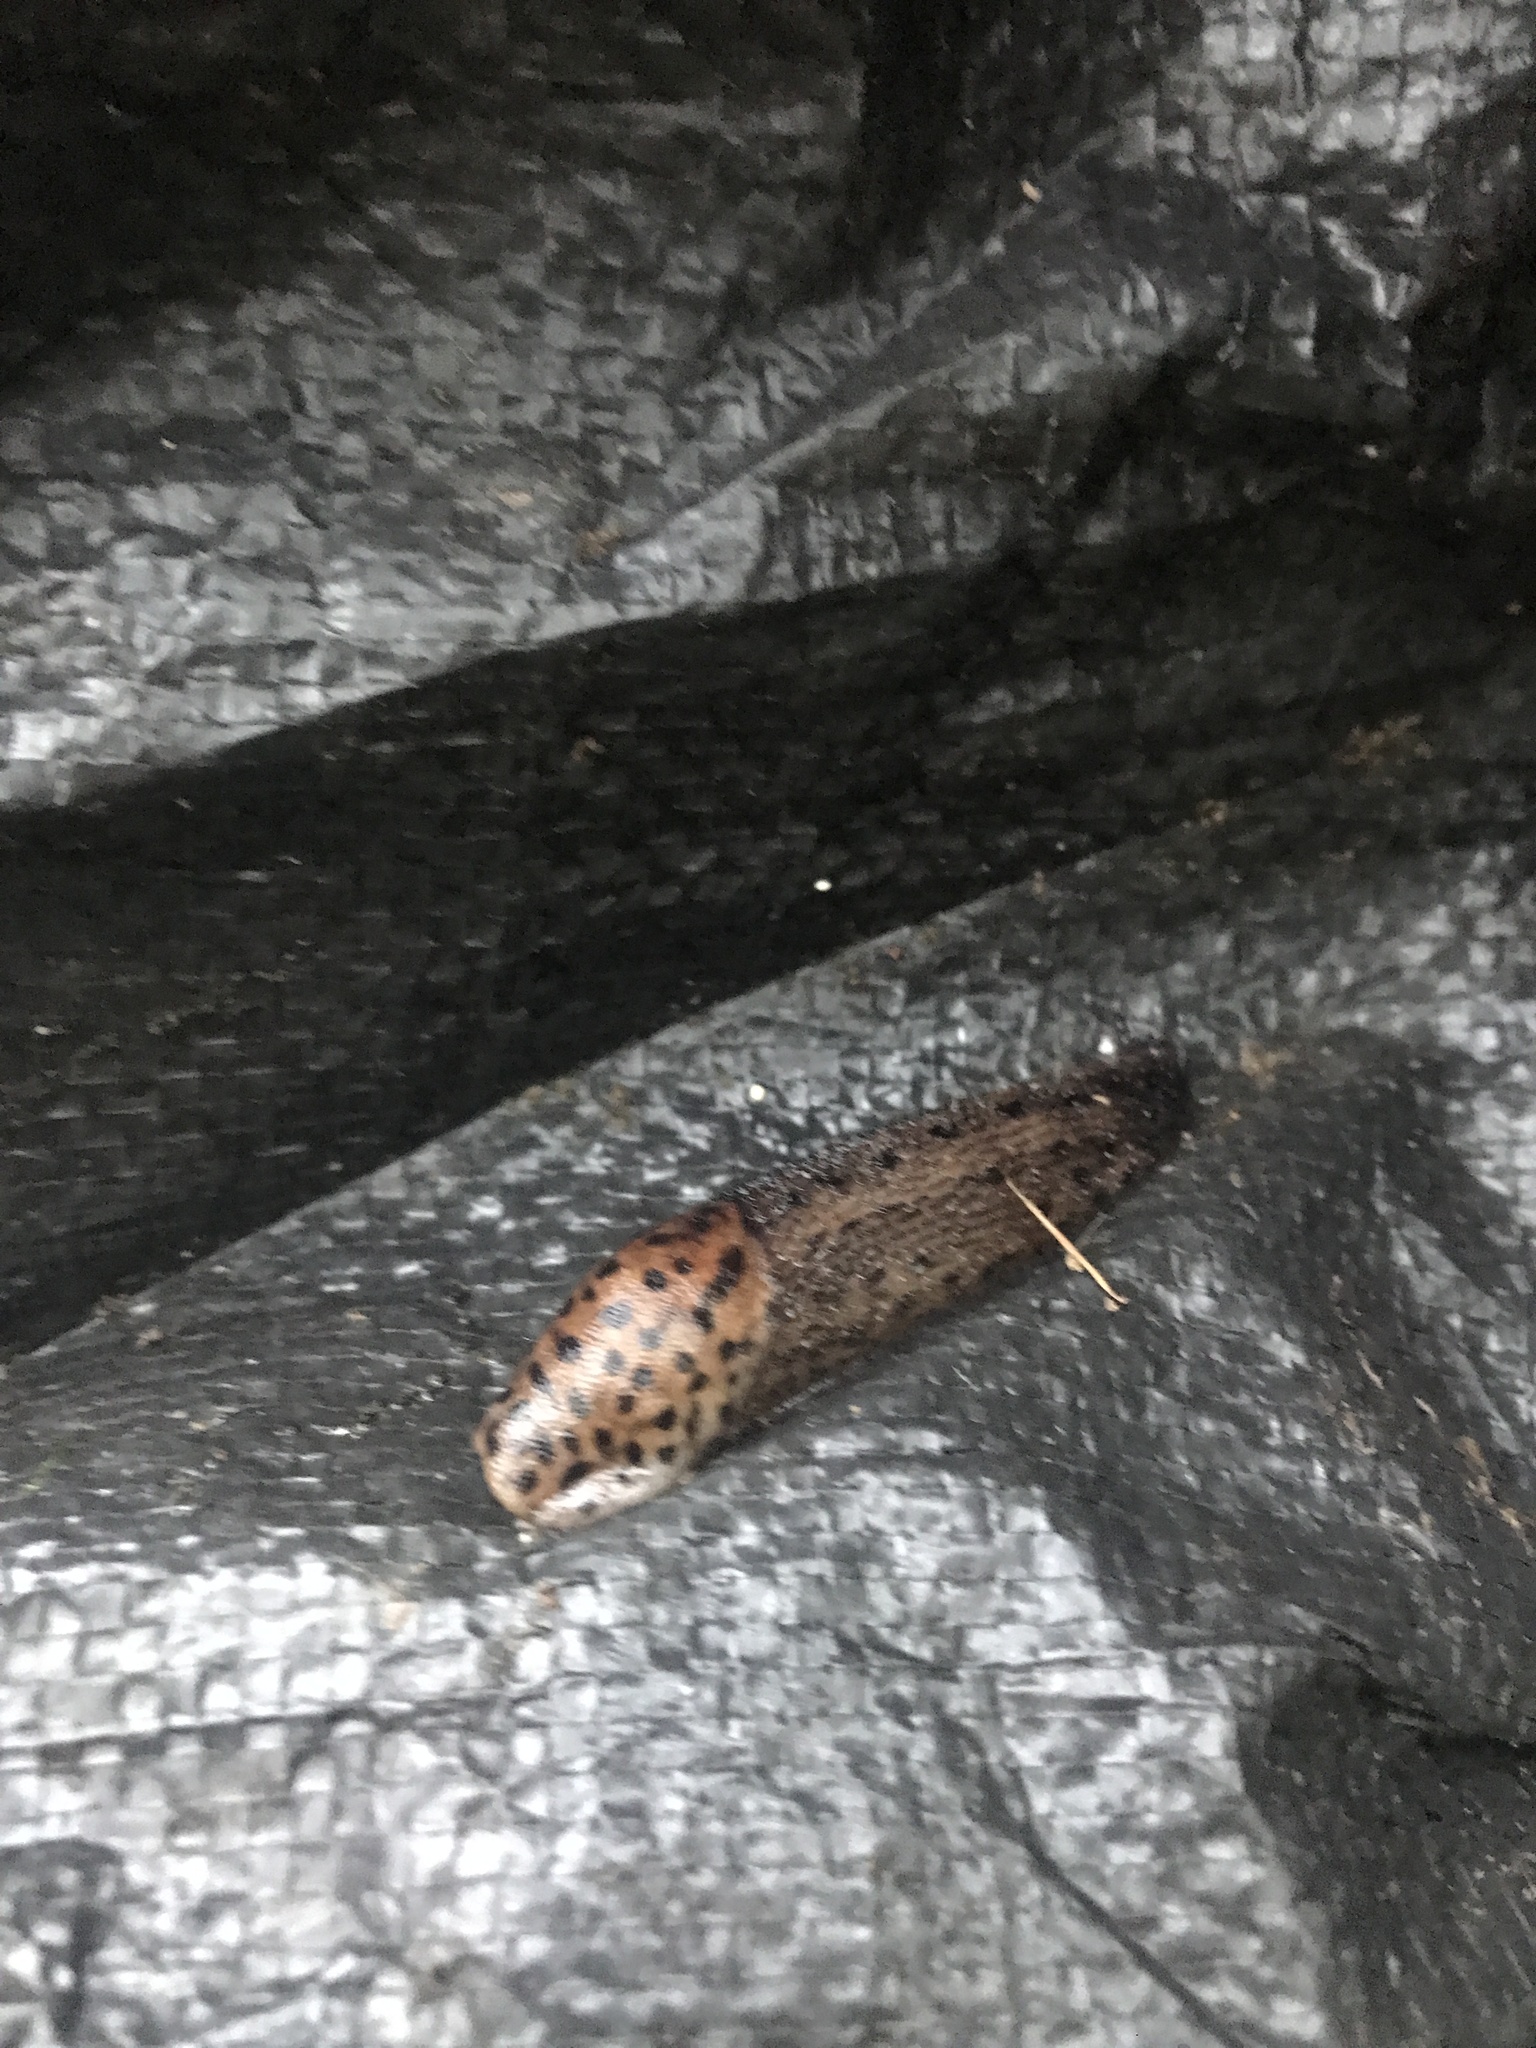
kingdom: Animalia
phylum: Mollusca
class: Gastropoda
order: Stylommatophora
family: Limacidae
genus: Limax
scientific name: Limax maximus
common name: Great grey slug
